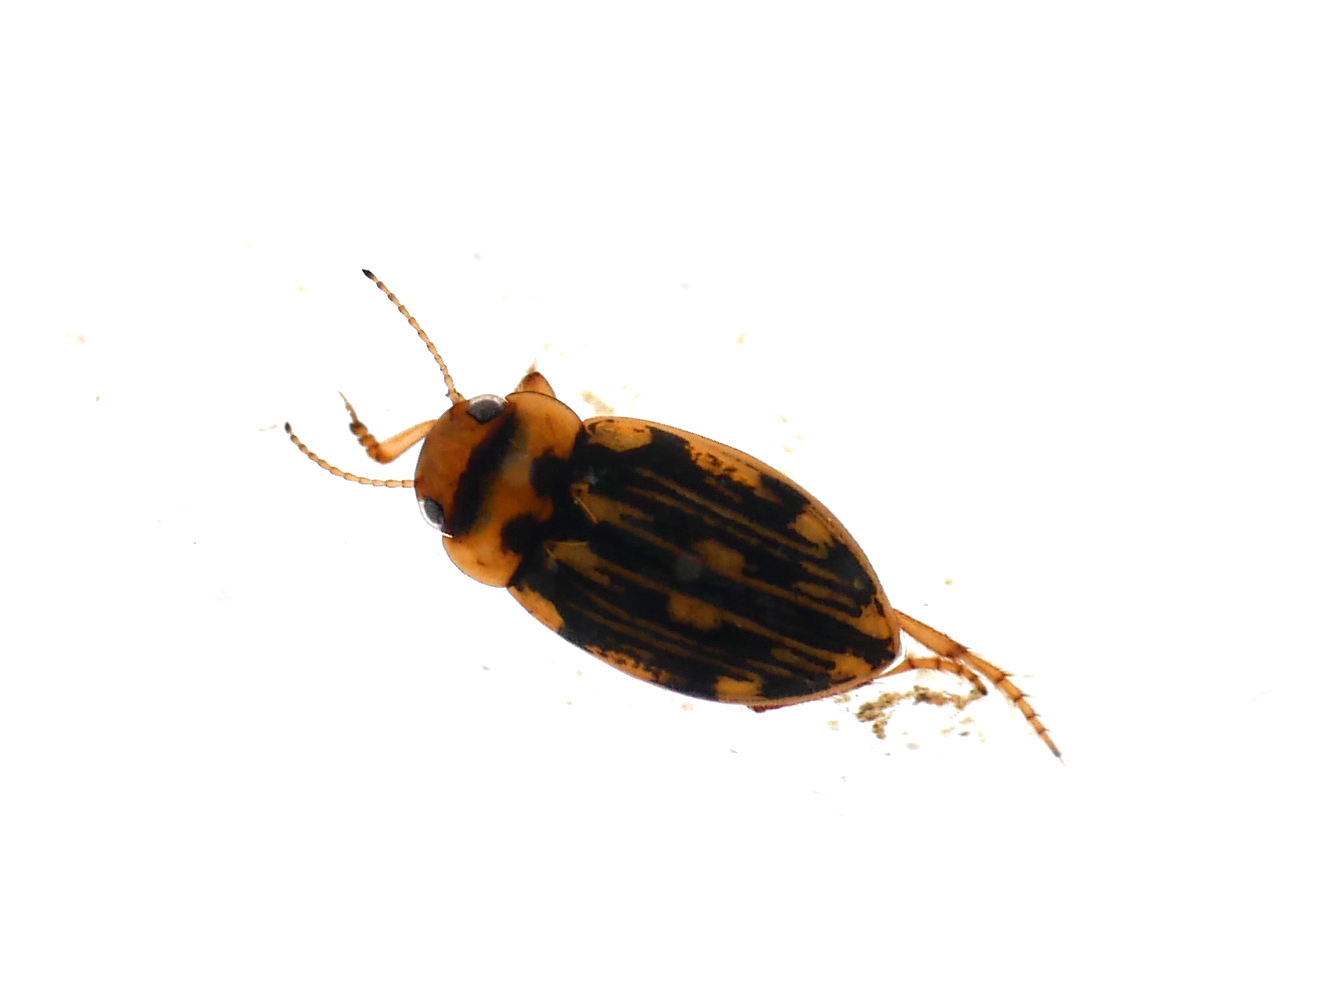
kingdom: Animalia
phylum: Arthropoda
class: Insecta
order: Coleoptera
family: Dytiscidae
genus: Nebrioporus
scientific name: Nebrioporus depressus
